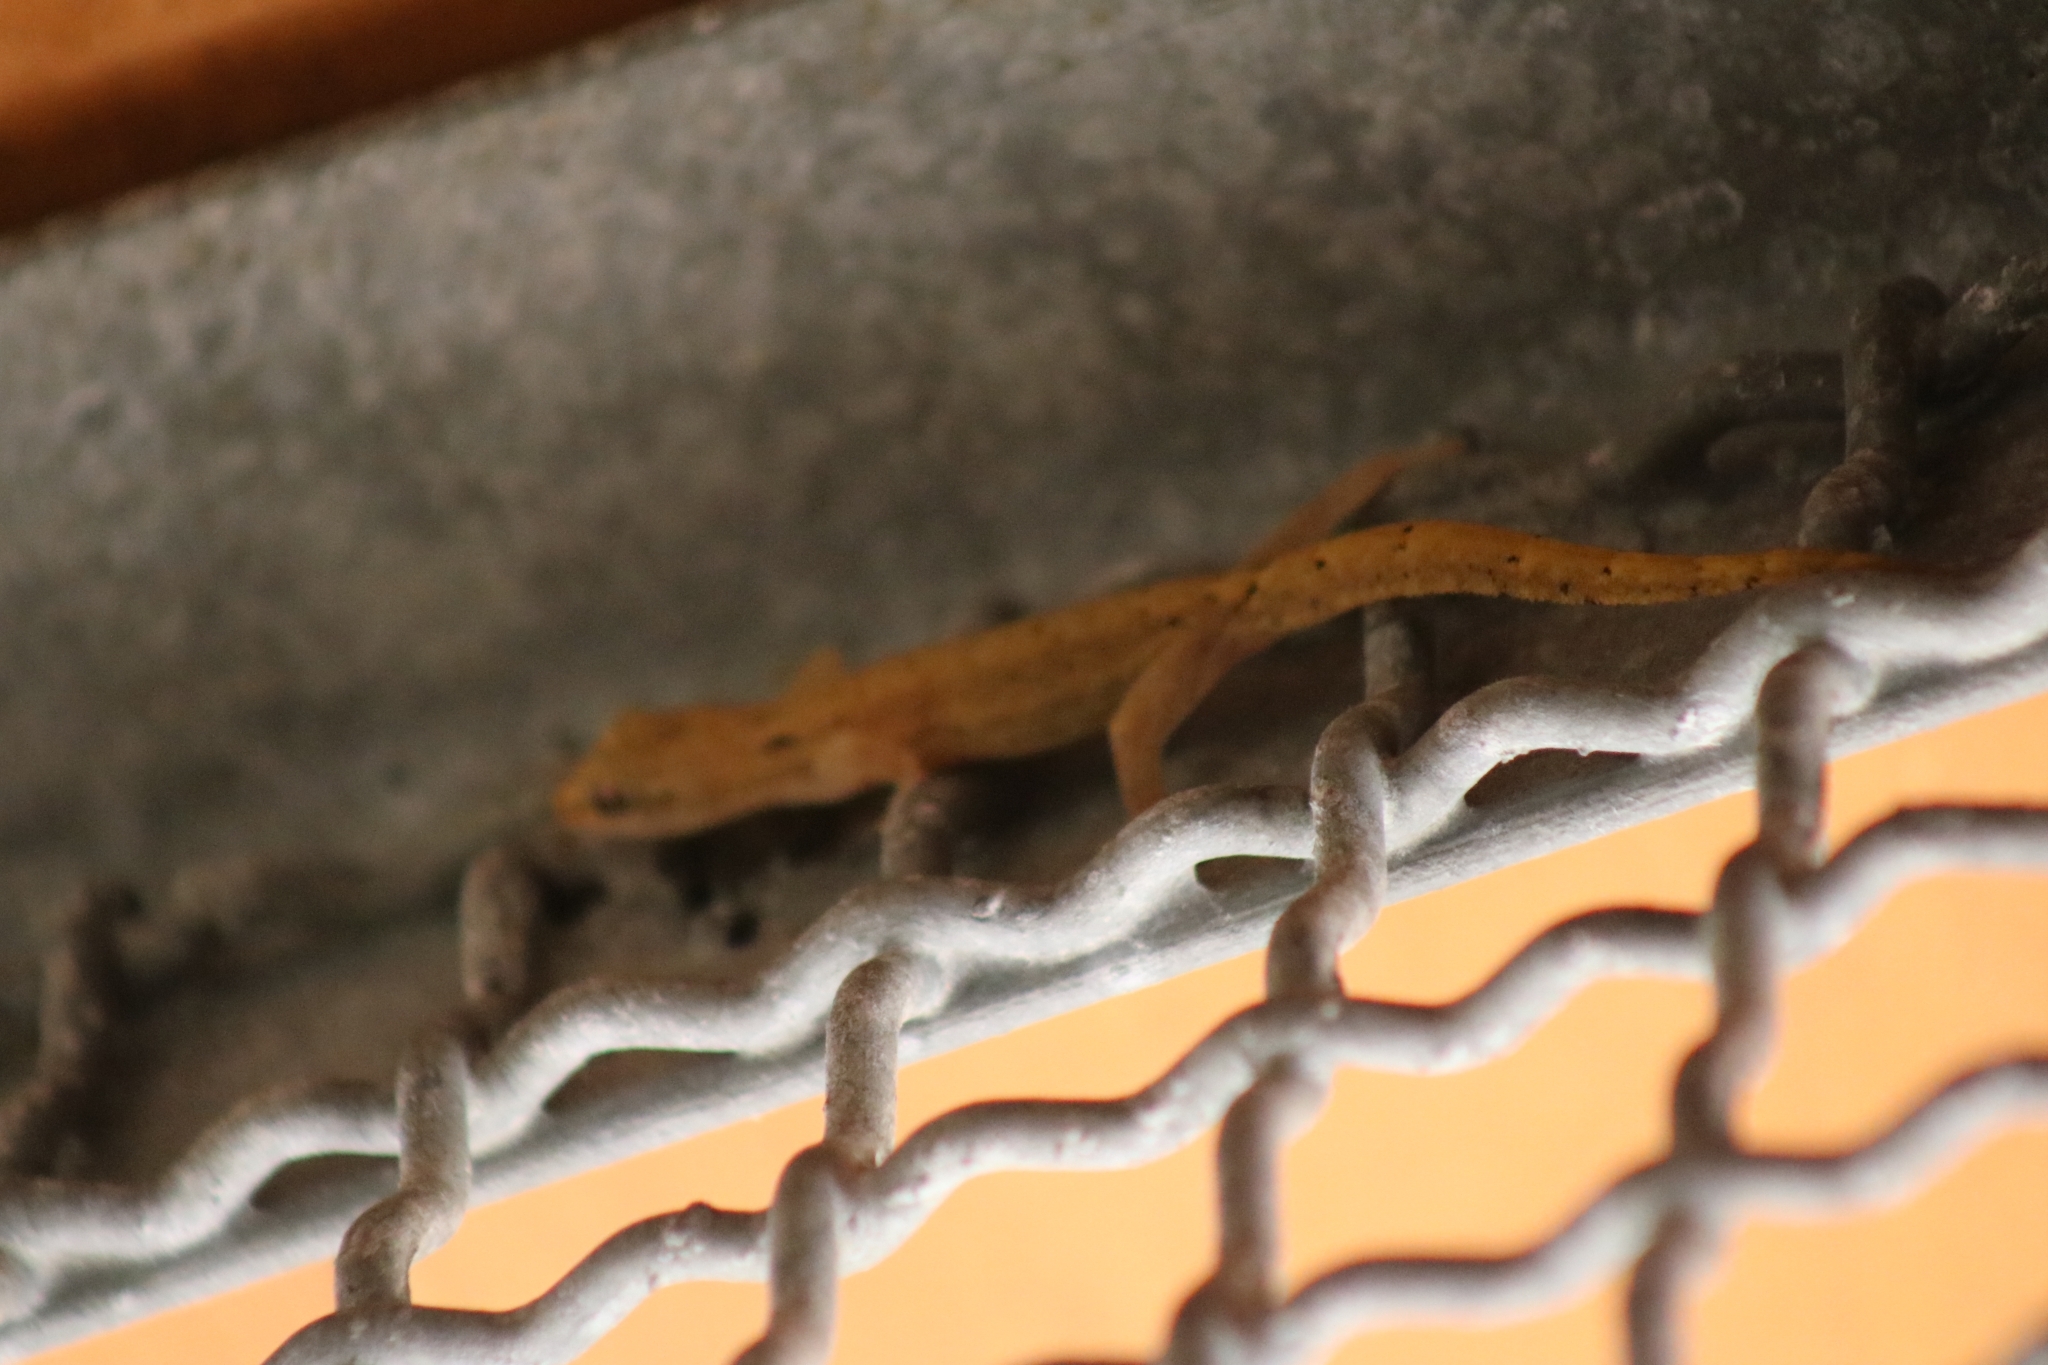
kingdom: Animalia
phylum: Chordata
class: Squamata
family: Gekkonidae
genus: Lepidodactylus
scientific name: Lepidodactylus lugubris
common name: Mourning gecko
